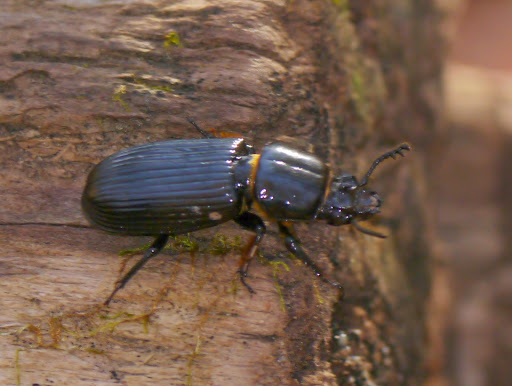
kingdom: Animalia
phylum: Arthropoda
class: Insecta
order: Coleoptera
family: Passalidae
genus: Odontotaenius
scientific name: Odontotaenius disjunctus
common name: Patent leather beetle
